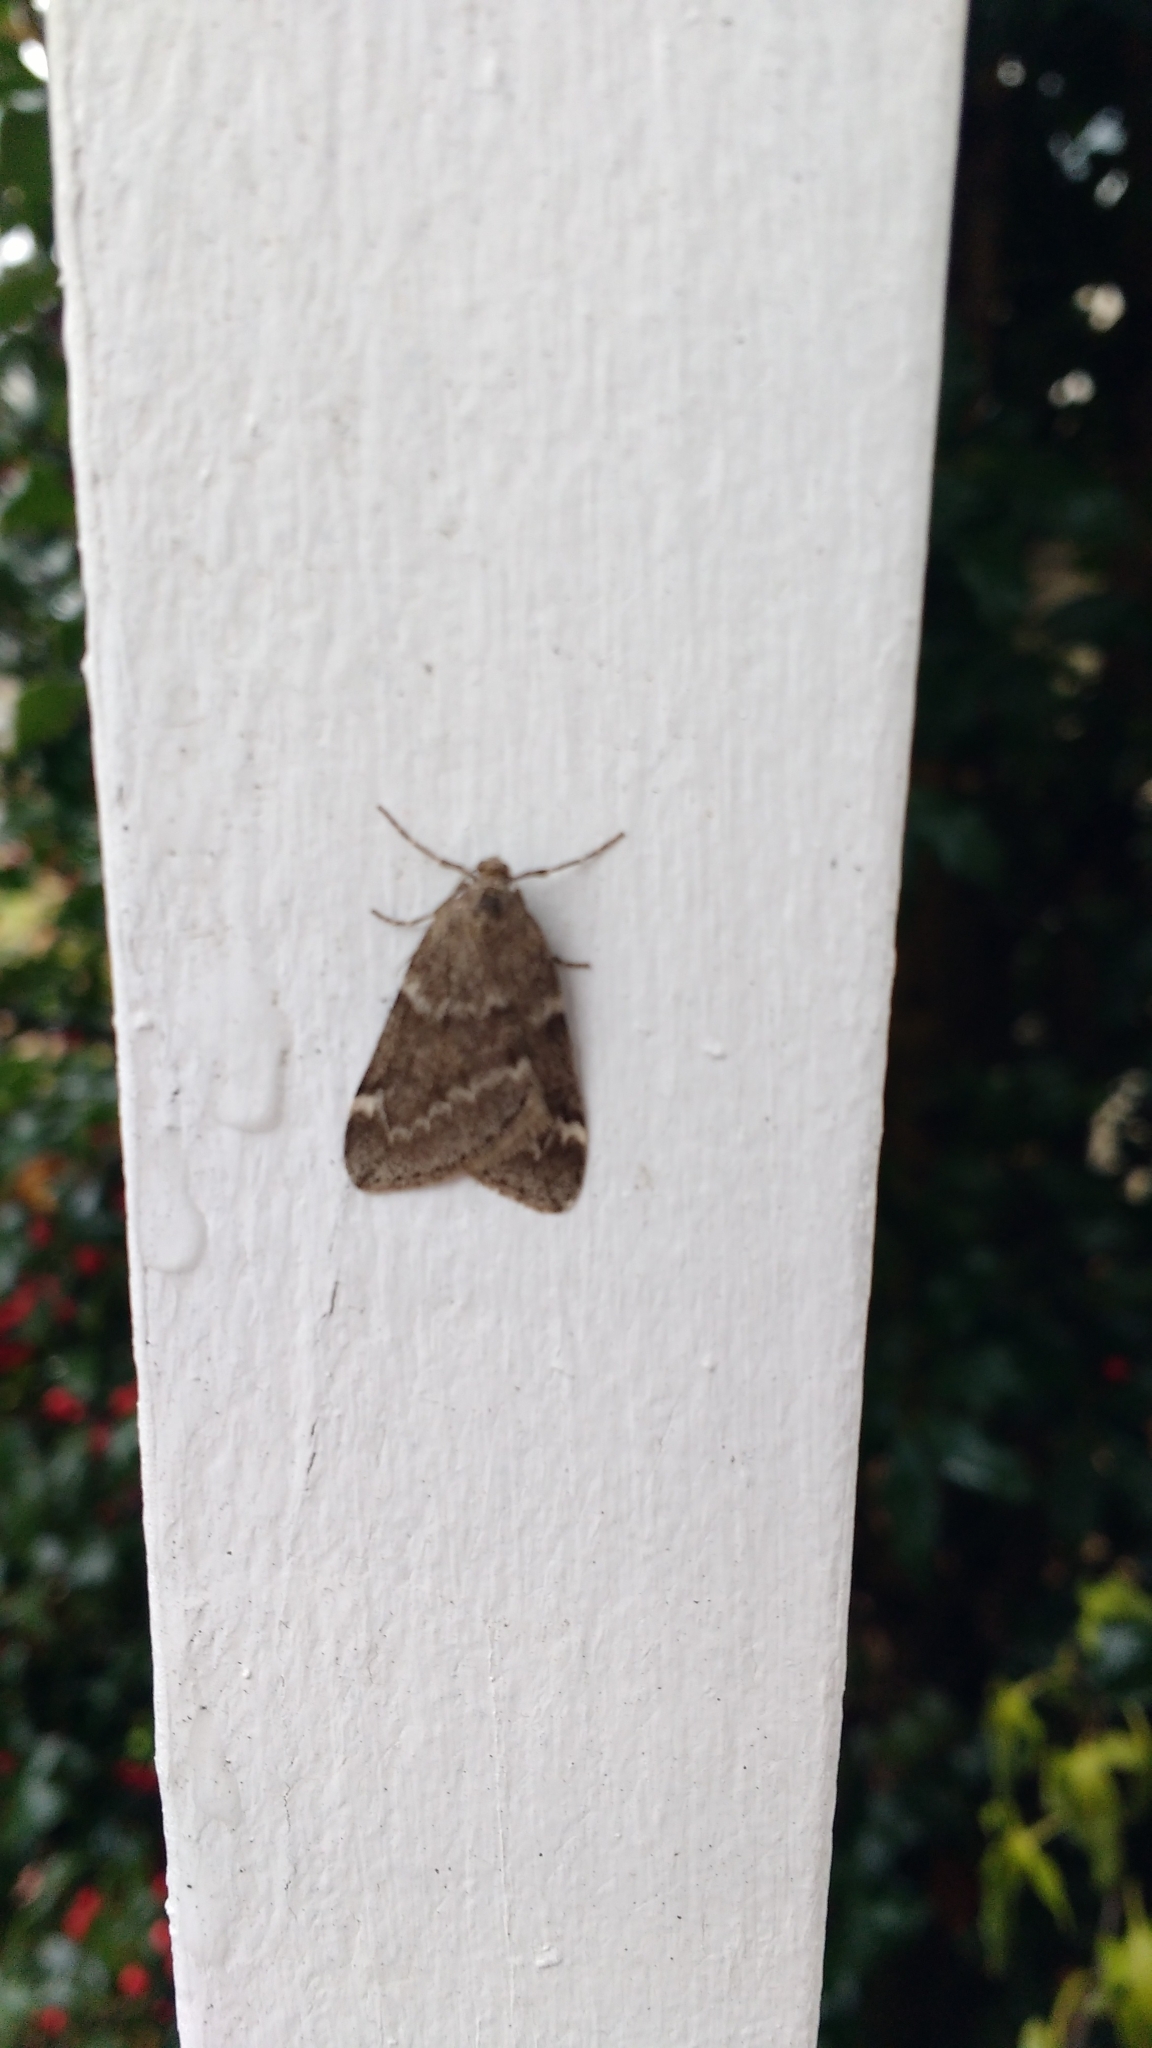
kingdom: Animalia
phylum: Arthropoda
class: Insecta
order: Lepidoptera
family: Geometridae
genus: Alsophila
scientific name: Alsophila pometaria
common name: Fall cankerworm
